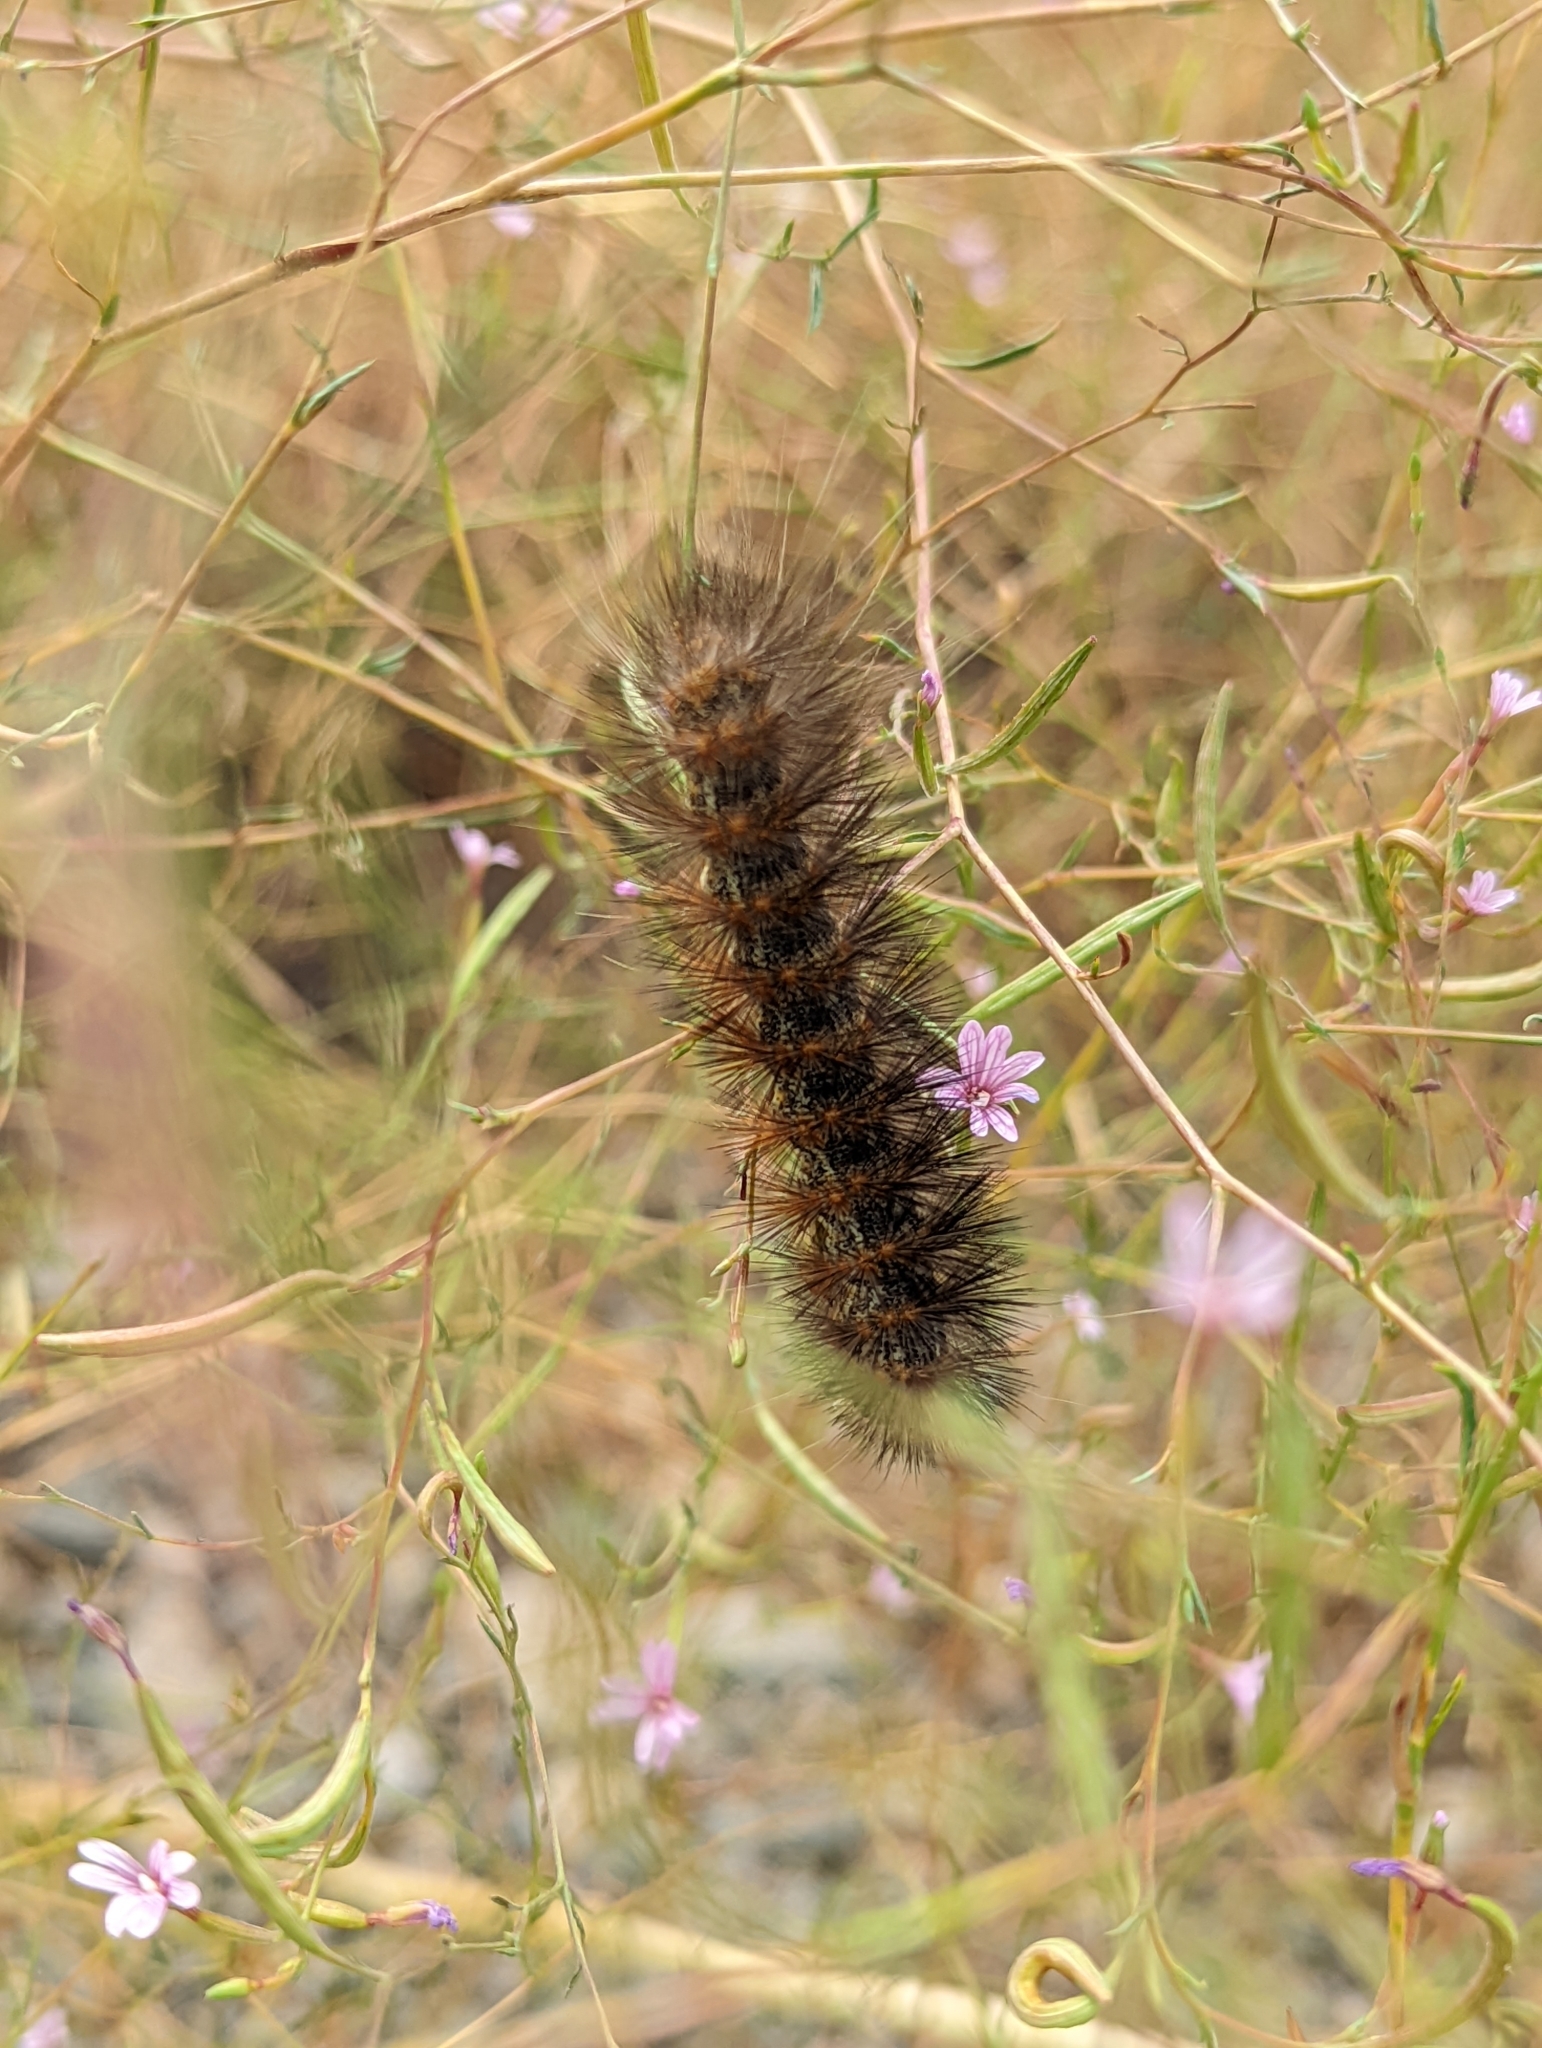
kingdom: Animalia
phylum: Arthropoda
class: Insecta
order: Lepidoptera
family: Erebidae
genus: Estigmene
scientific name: Estigmene acrea
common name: Salt marsh moth
